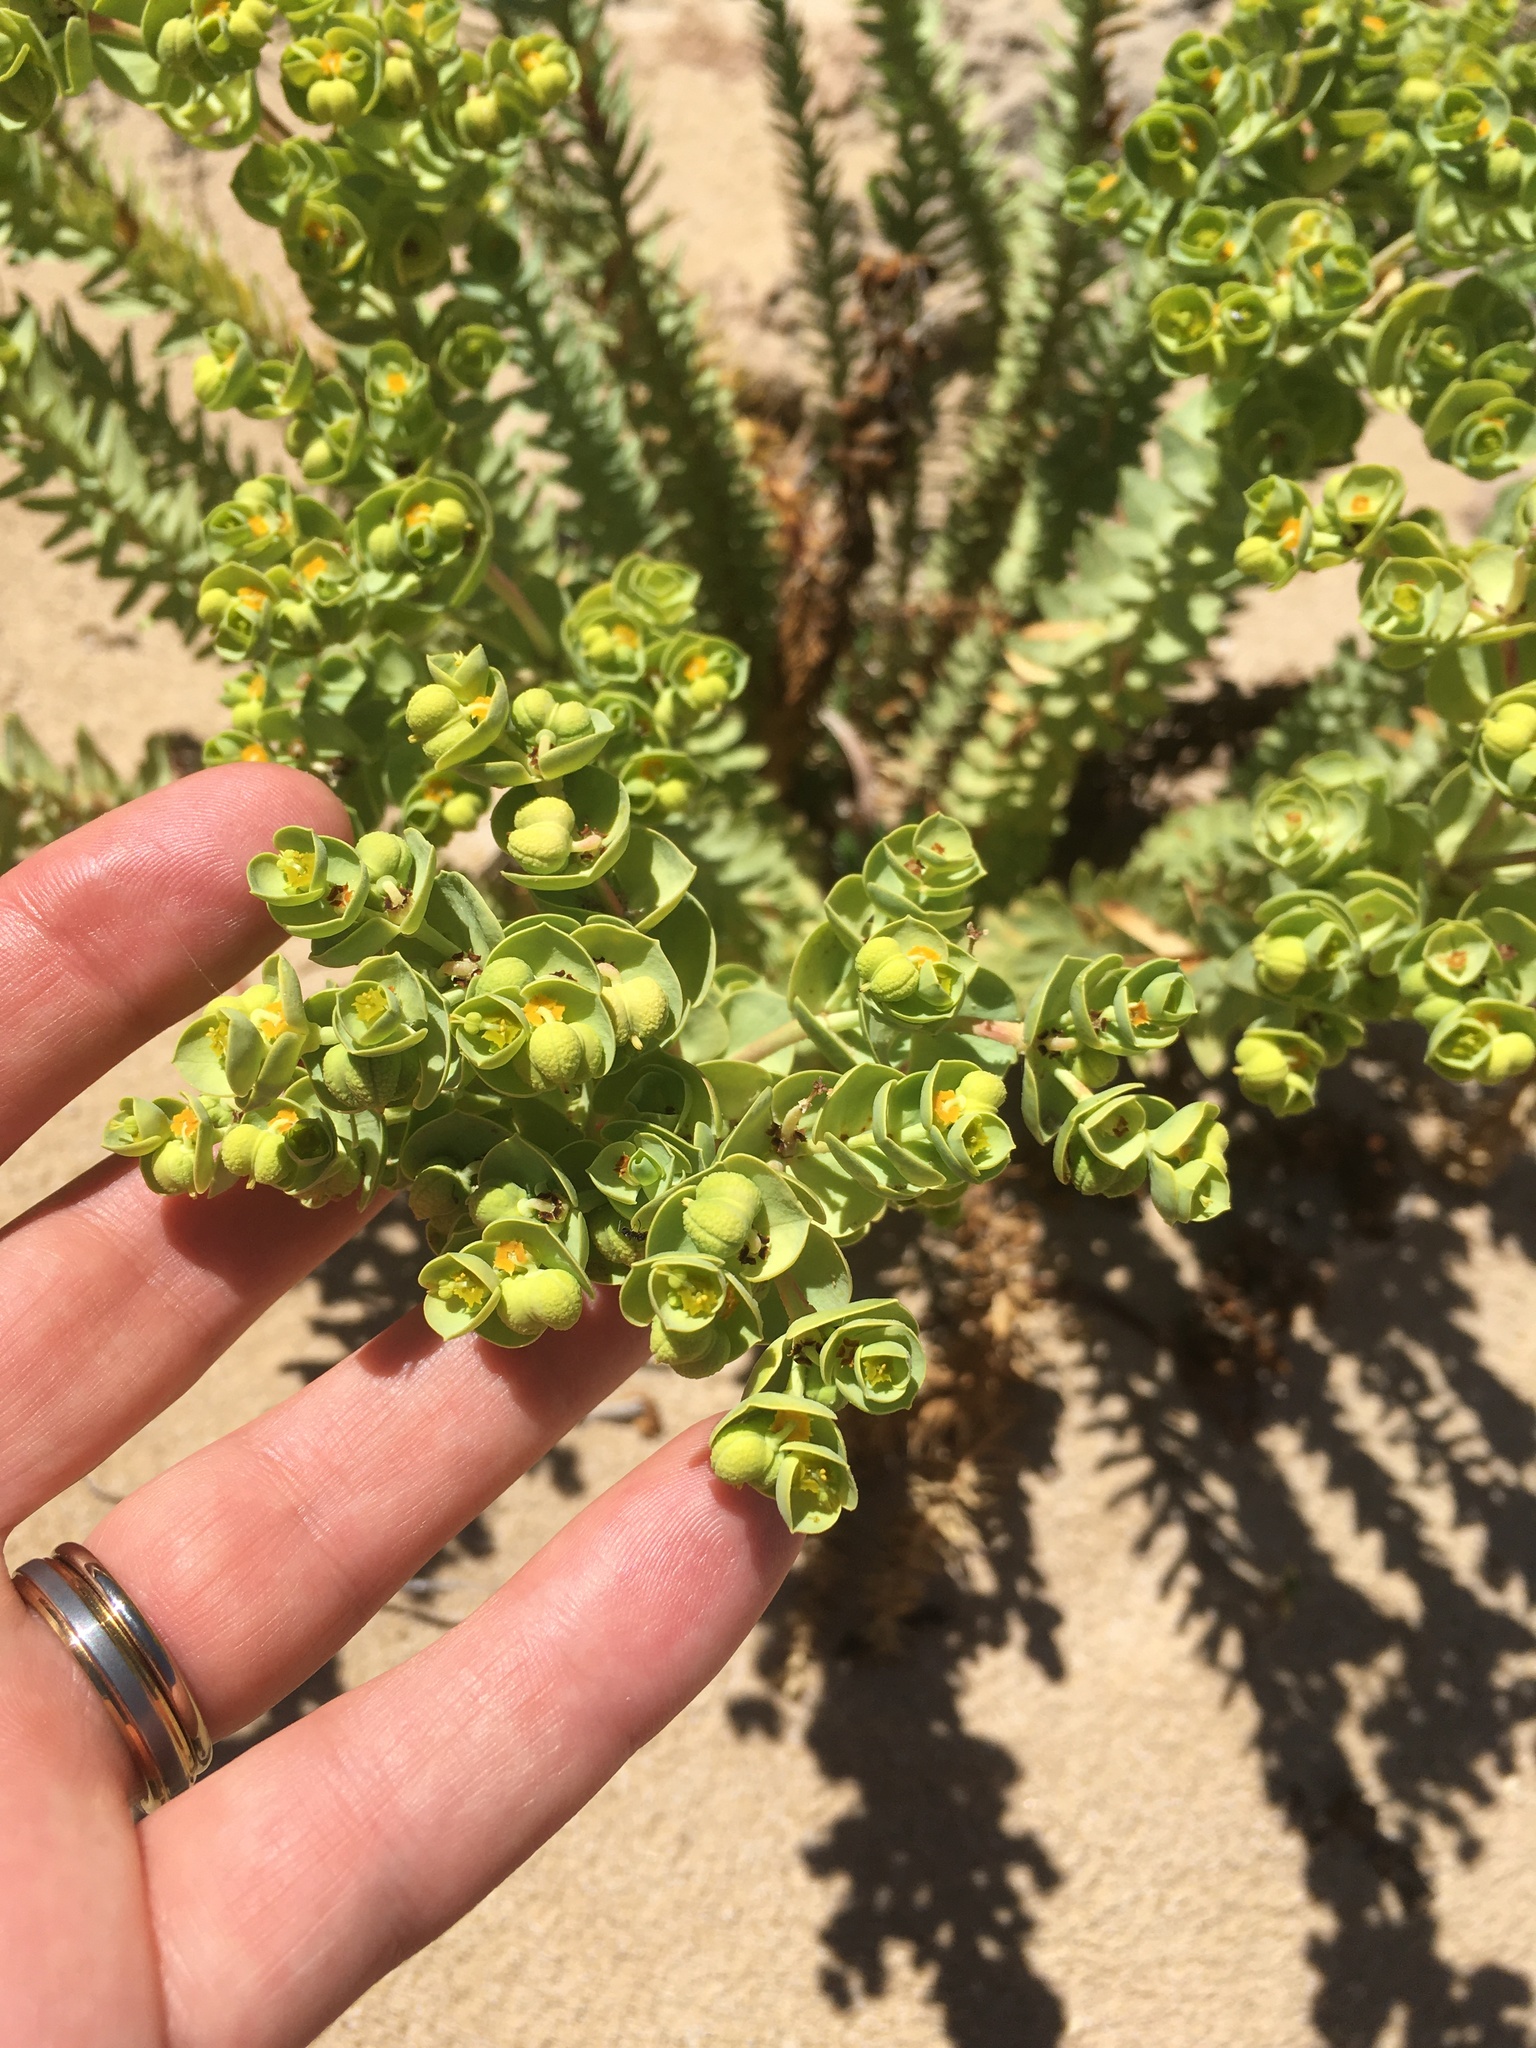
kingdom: Plantae
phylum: Tracheophyta
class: Magnoliopsida
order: Malpighiales
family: Euphorbiaceae
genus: Euphorbia
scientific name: Euphorbia paralias
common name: Sea spurge
